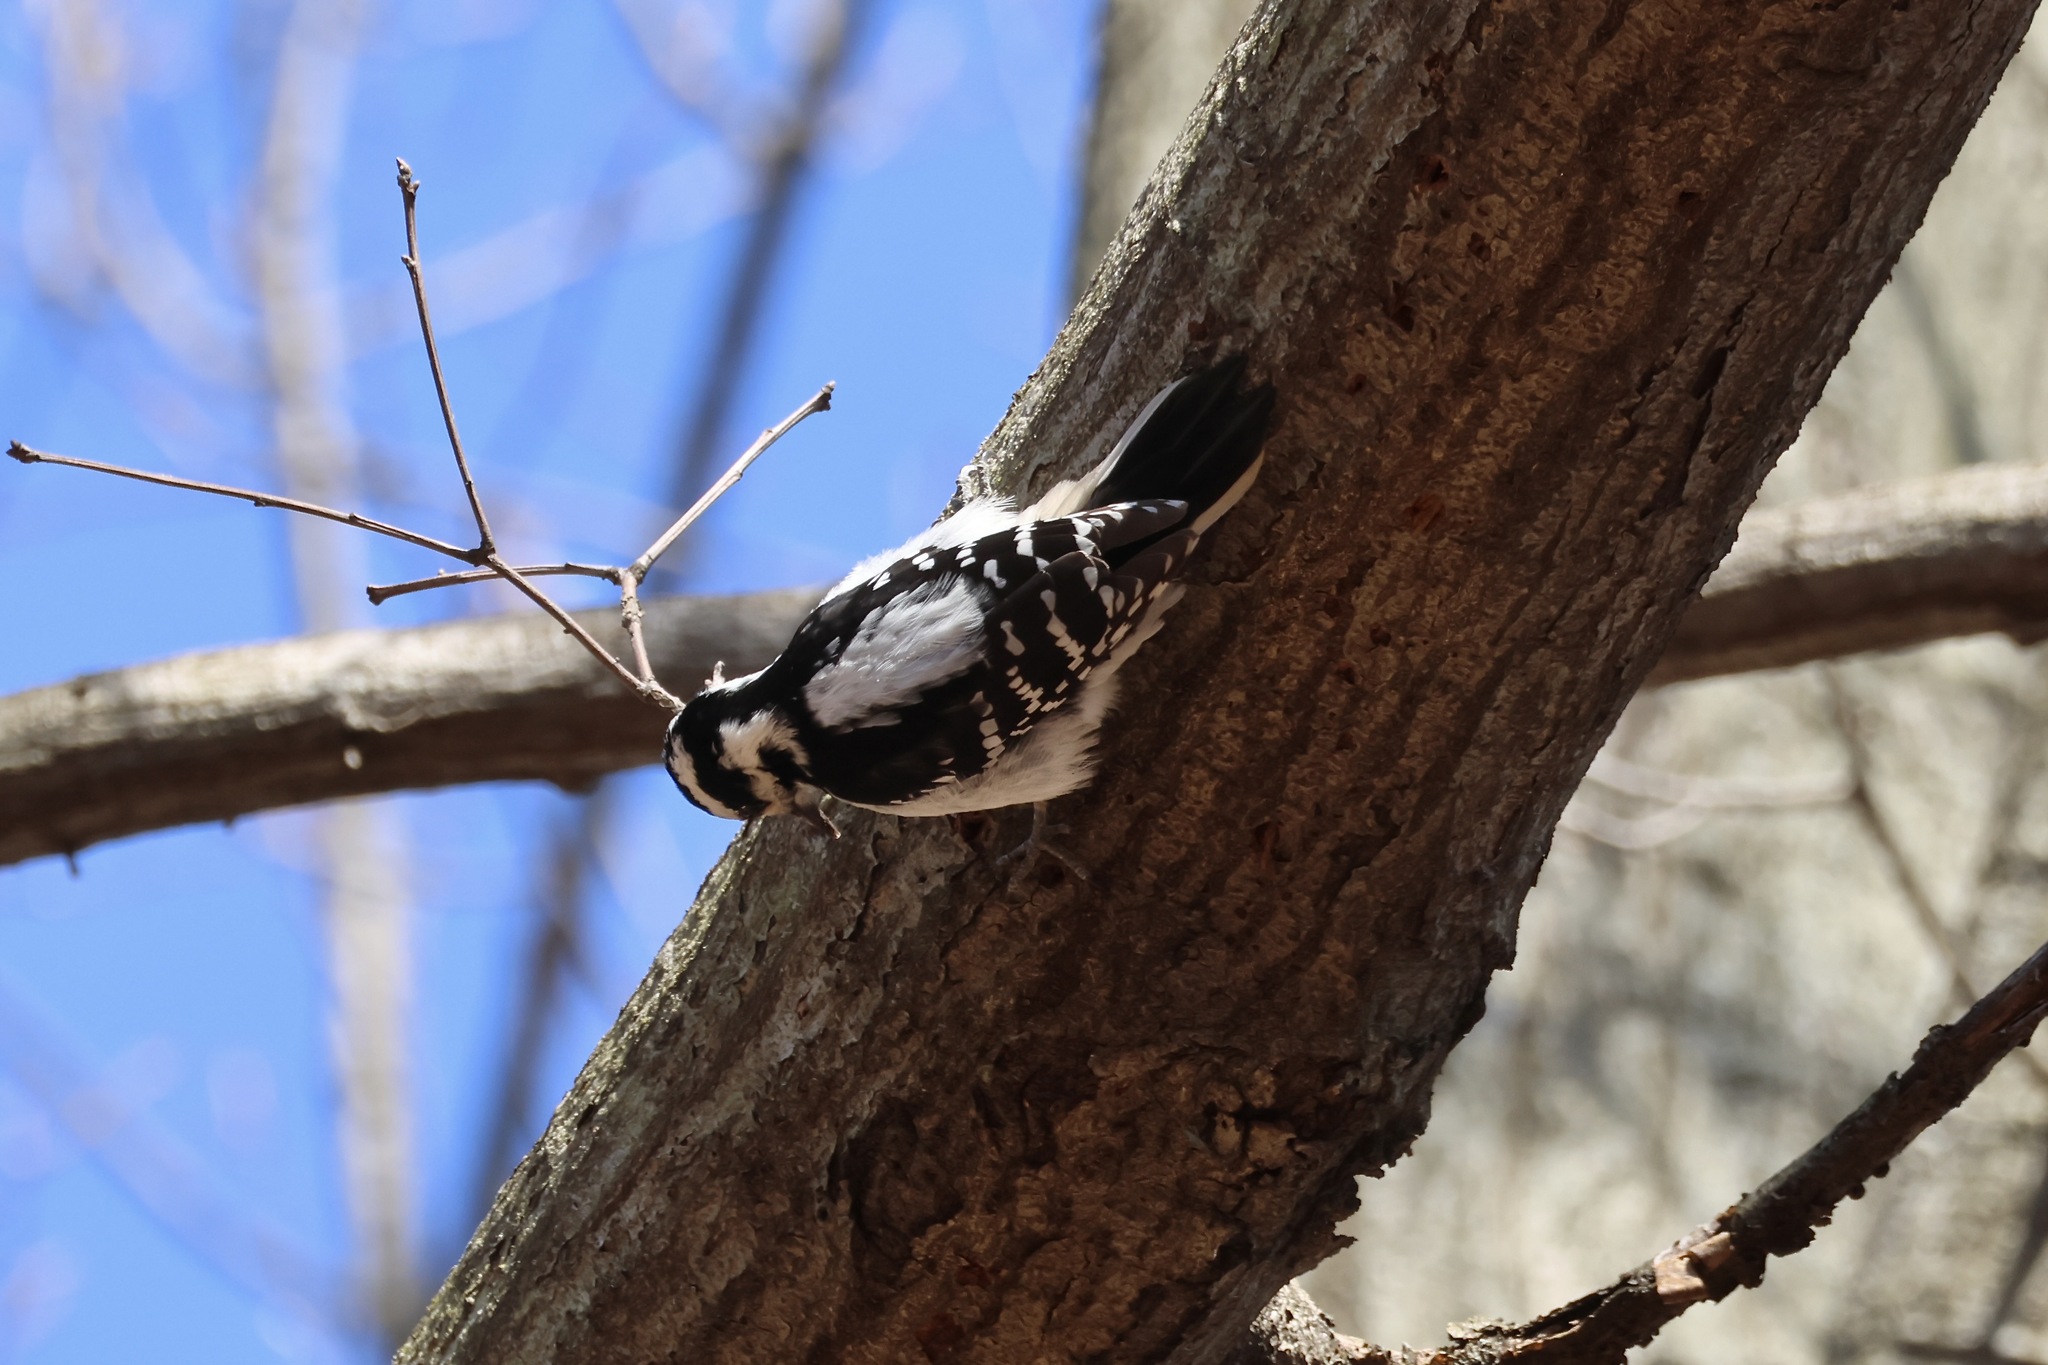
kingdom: Animalia
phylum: Chordata
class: Aves
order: Piciformes
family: Picidae
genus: Leuconotopicus
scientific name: Leuconotopicus villosus
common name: Hairy woodpecker
